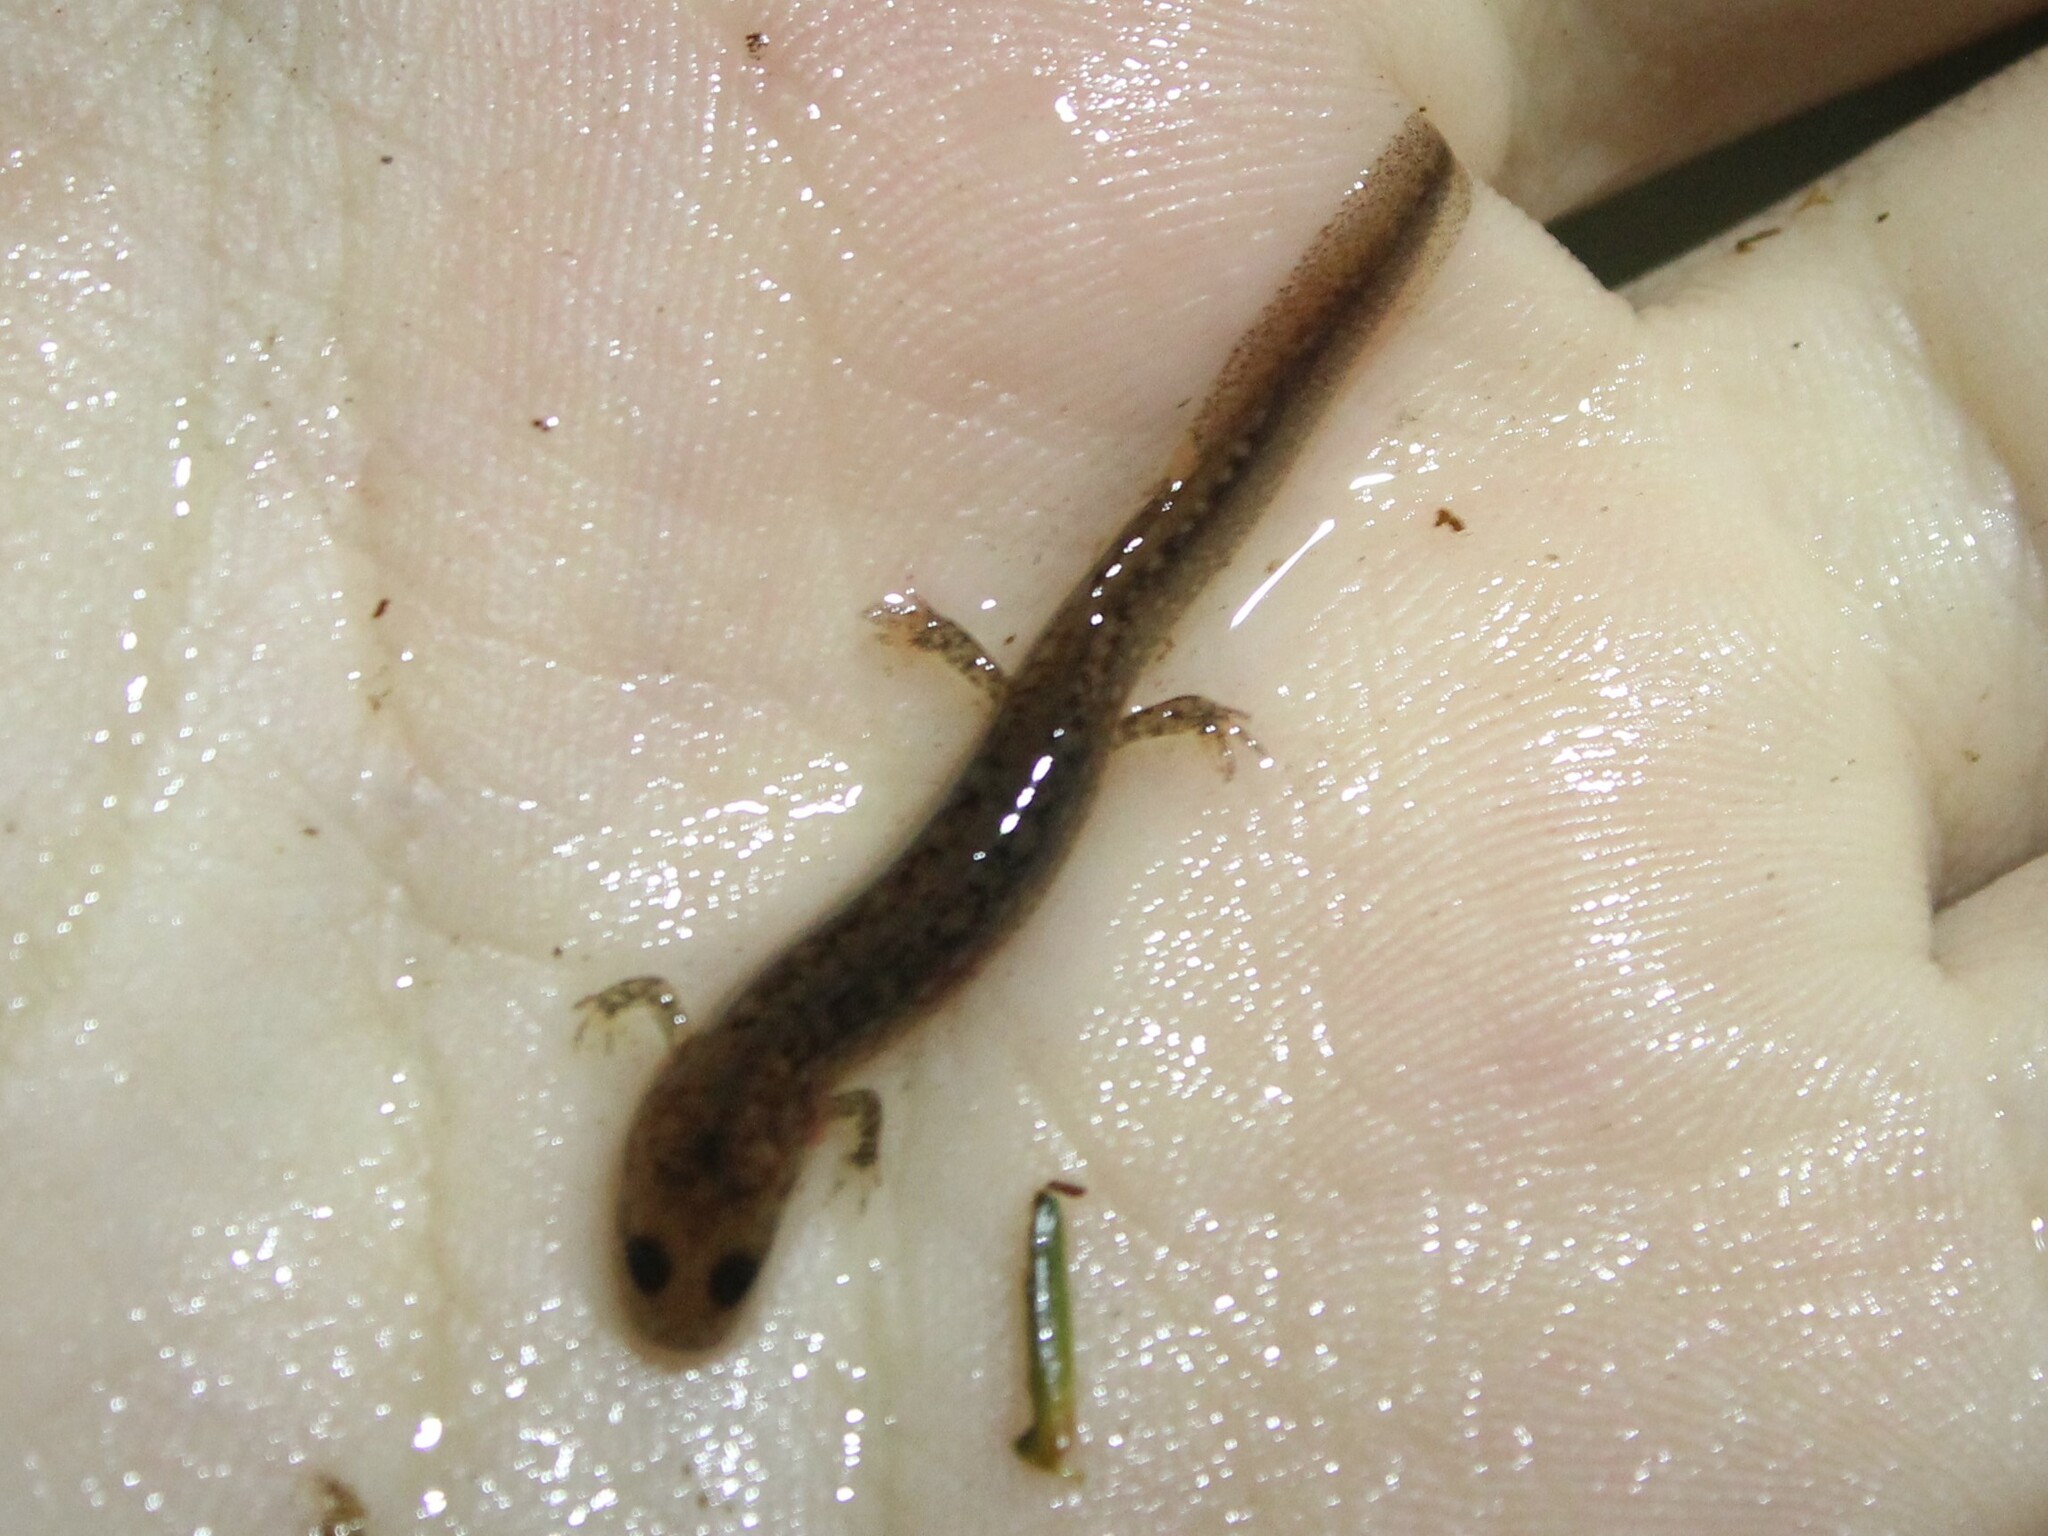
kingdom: Animalia
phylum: Chordata
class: Amphibia
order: Caudata
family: Plethodontidae
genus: Eurycea
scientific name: Eurycea bislineata
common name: Northern two-lined salamander
